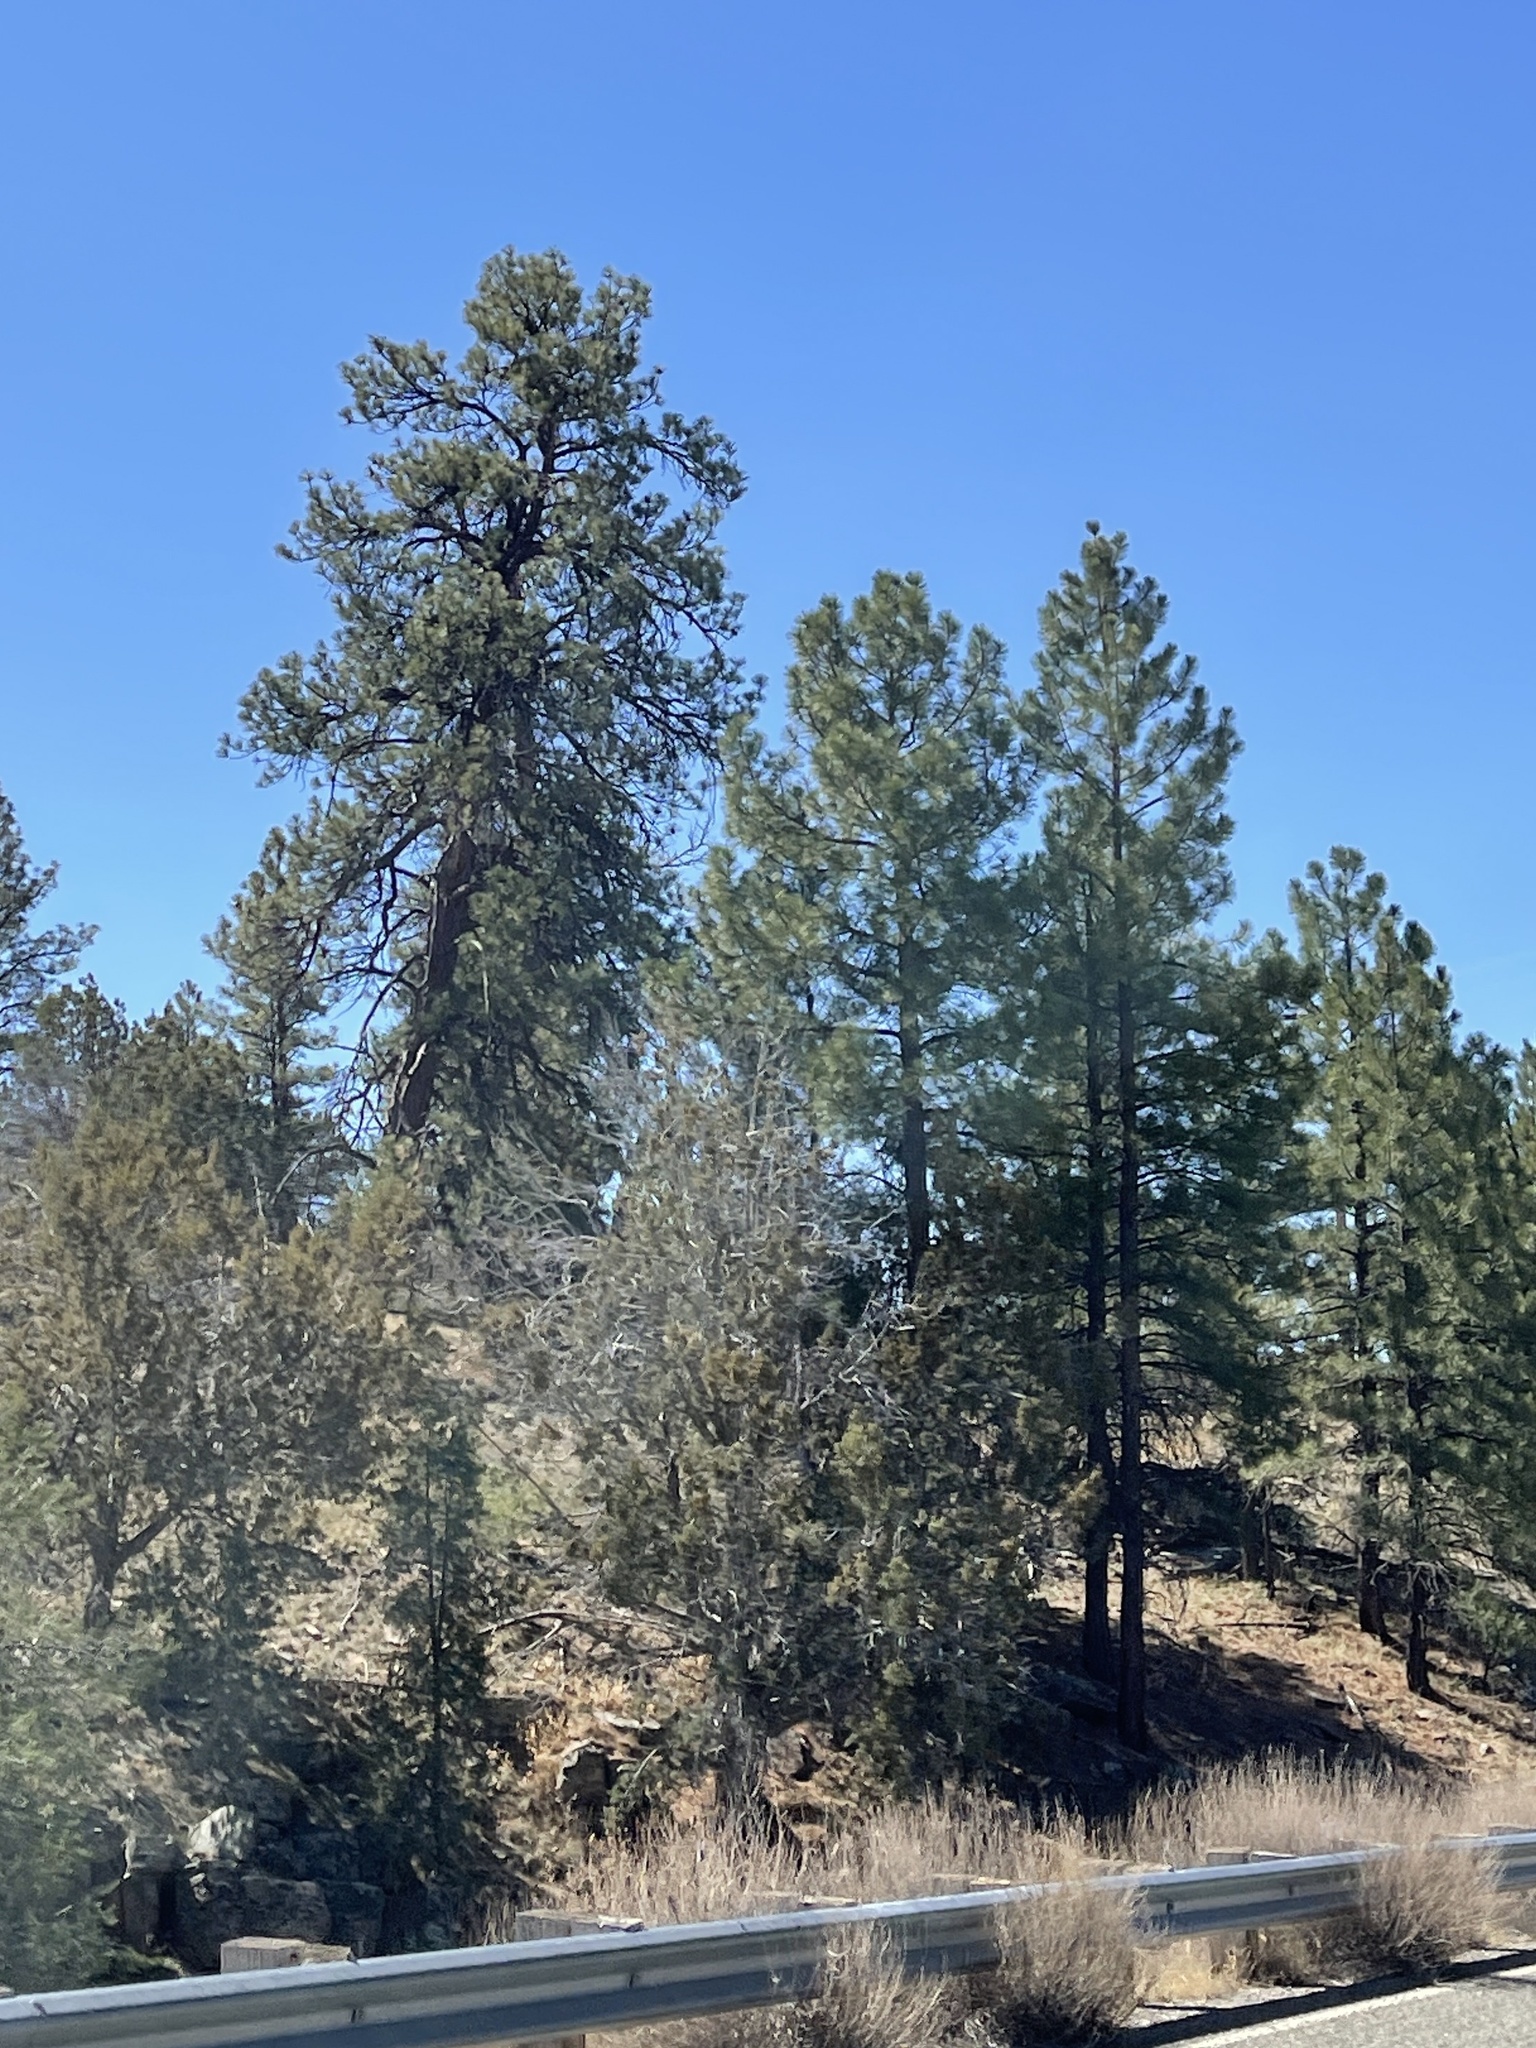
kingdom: Plantae
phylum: Tracheophyta
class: Pinopsida
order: Pinales
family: Pinaceae
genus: Pinus
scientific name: Pinus ponderosa
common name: Western yellow-pine
